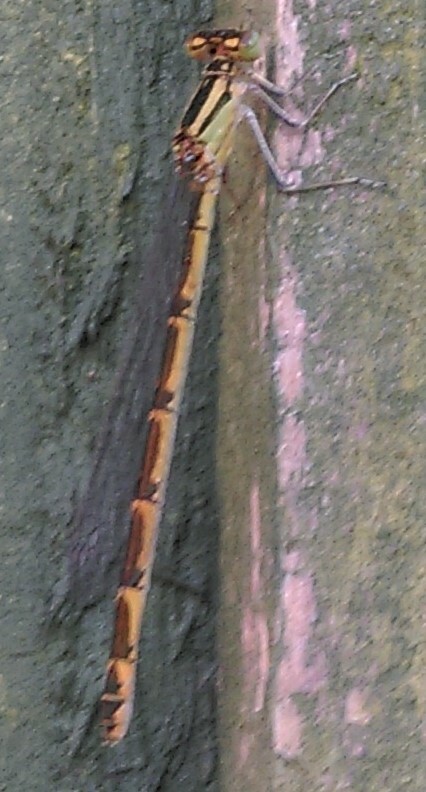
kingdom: Animalia
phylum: Arthropoda
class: Insecta
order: Odonata
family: Coenagrionidae
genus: Enallagma
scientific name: Enallagma cyathigerum
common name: Common blue damselfly
